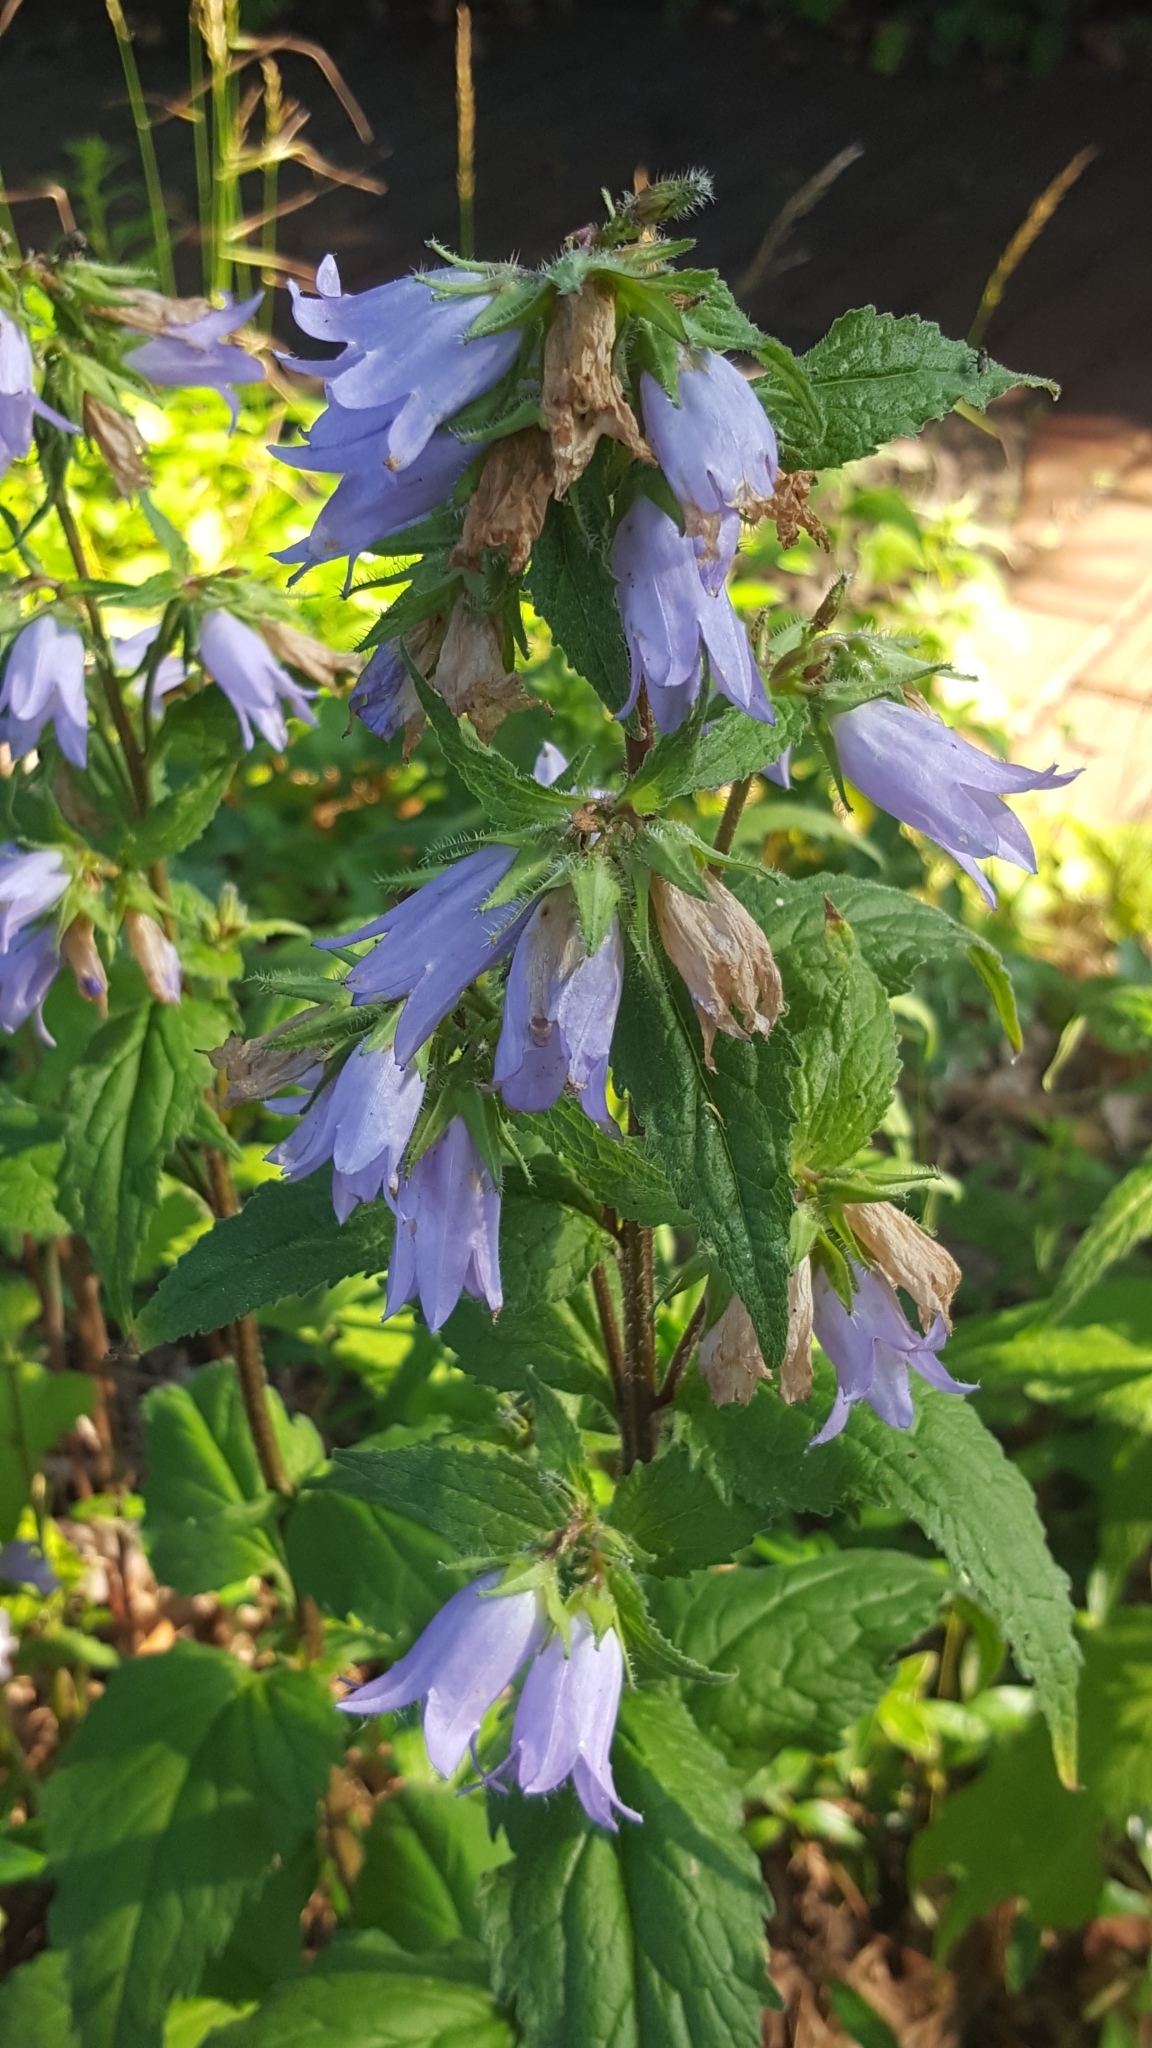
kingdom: Plantae
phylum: Tracheophyta
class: Magnoliopsida
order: Asterales
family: Campanulaceae
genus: Campanula
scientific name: Campanula trachelium
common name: Nettle-leaved bellflower
